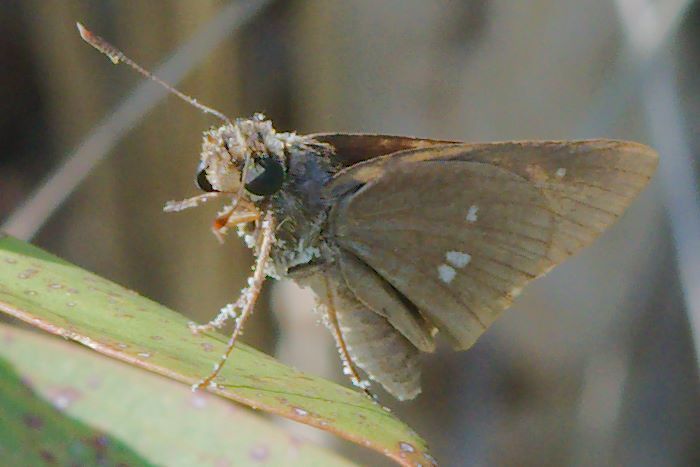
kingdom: Animalia
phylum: Arthropoda
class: Insecta
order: Lepidoptera
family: Hesperiidae
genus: Oligoria
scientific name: Oligoria maculata
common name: Twin-spot skipper
